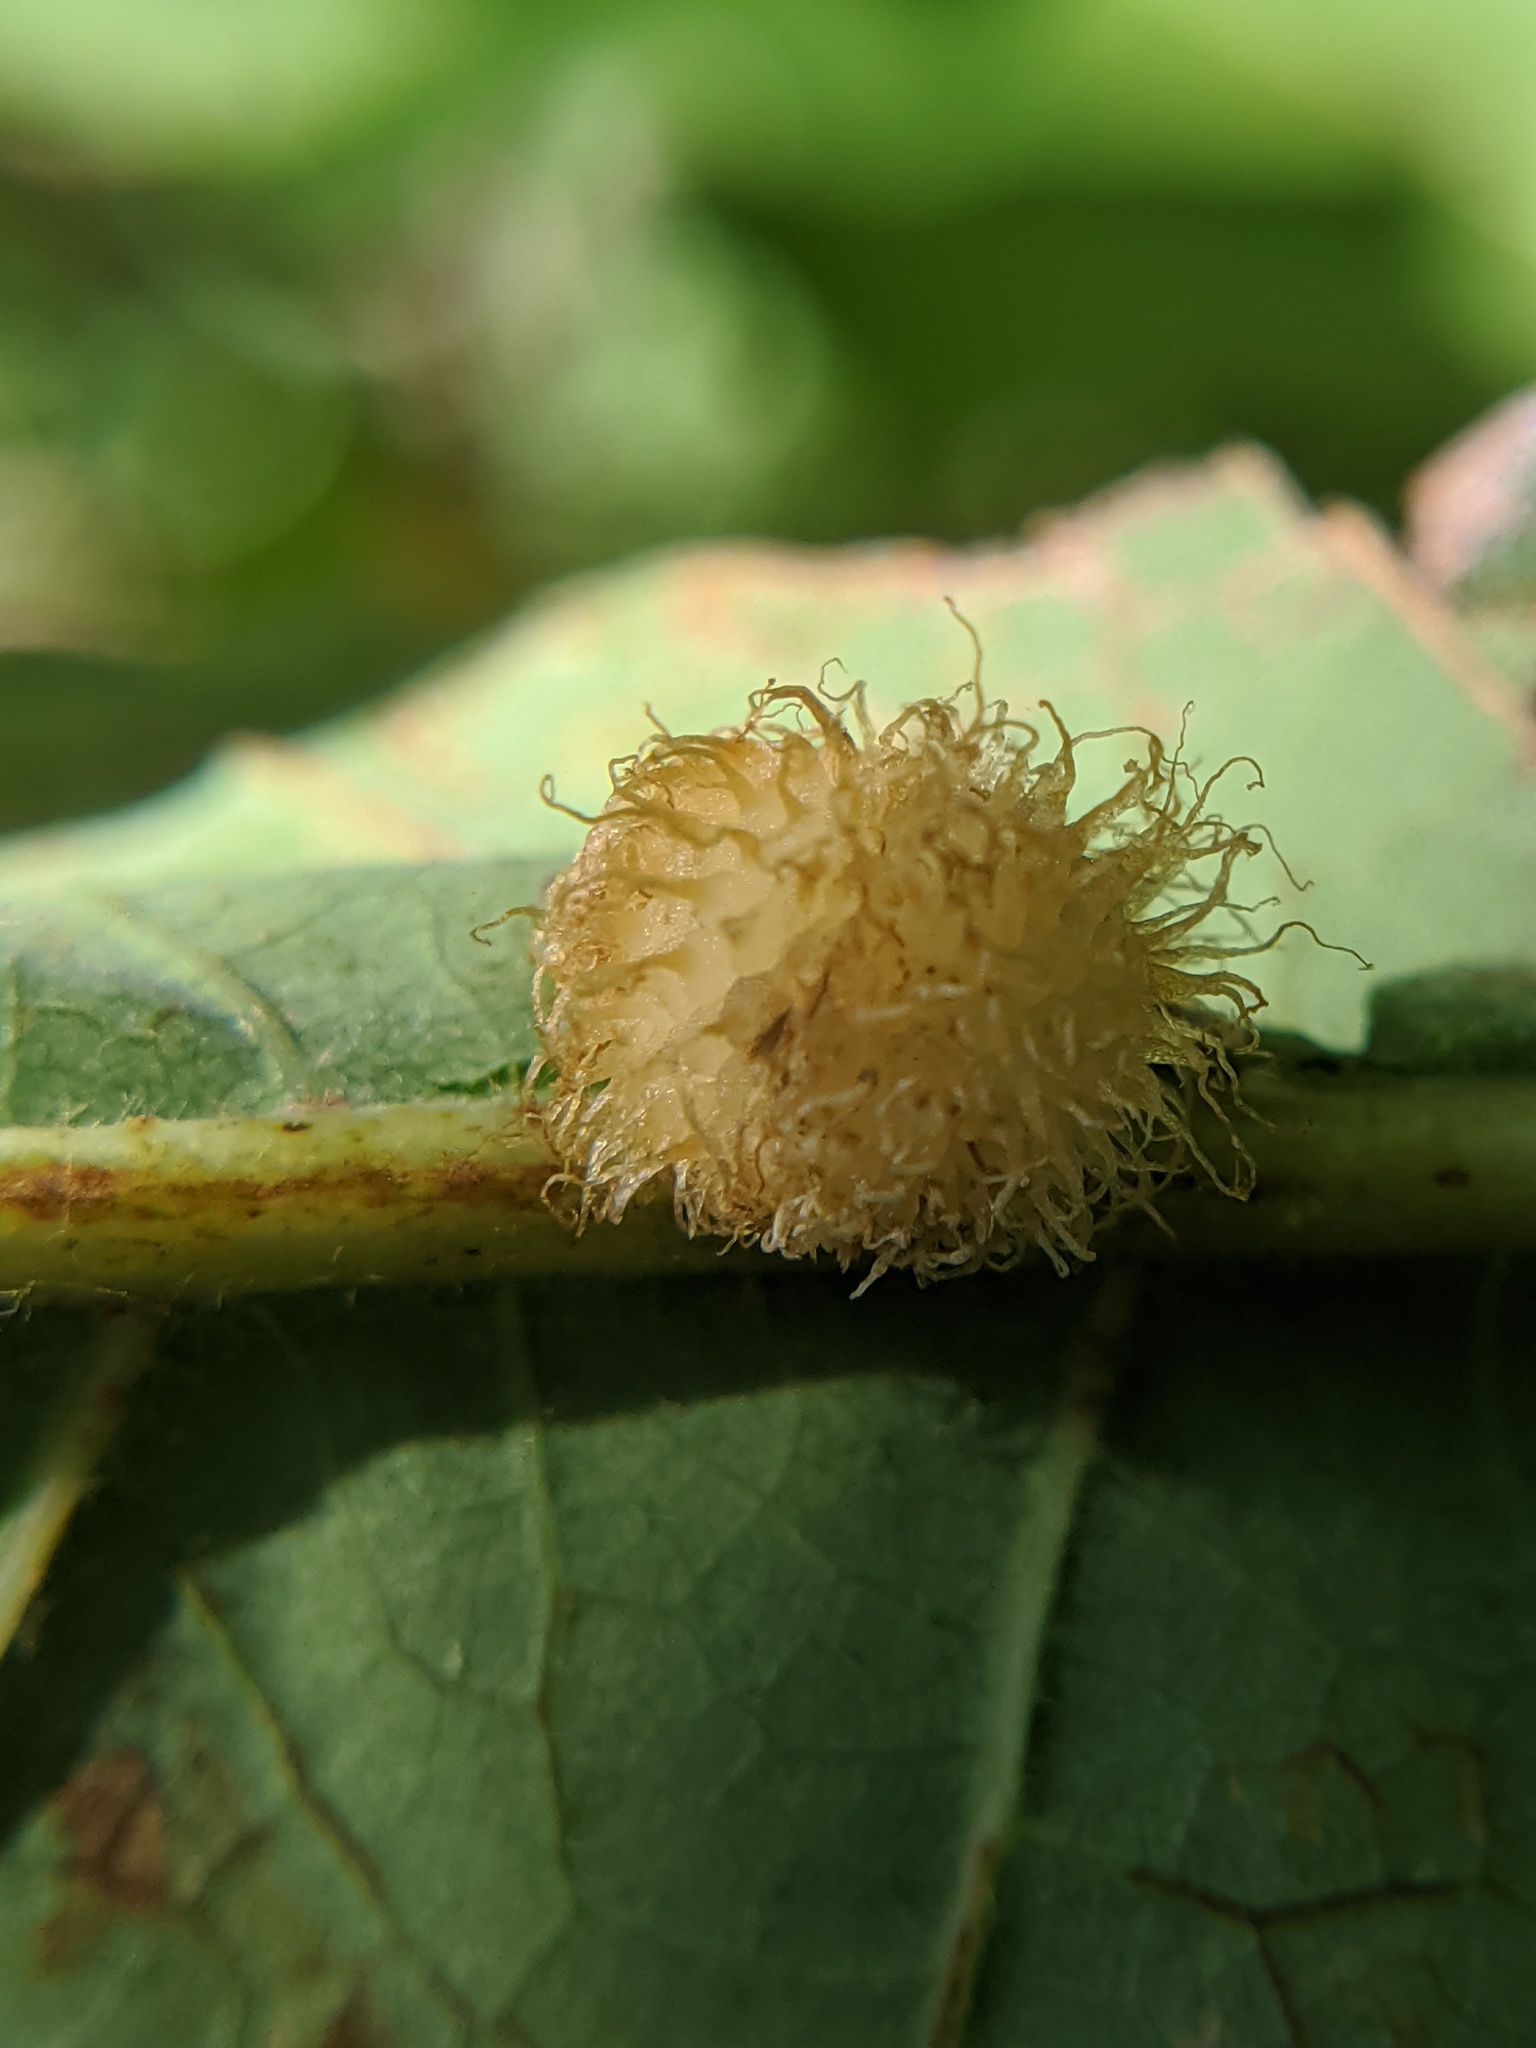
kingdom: Animalia
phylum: Arthropoda
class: Insecta
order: Hymenoptera
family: Cynipidae
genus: Acraspis
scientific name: Acraspis villosa
